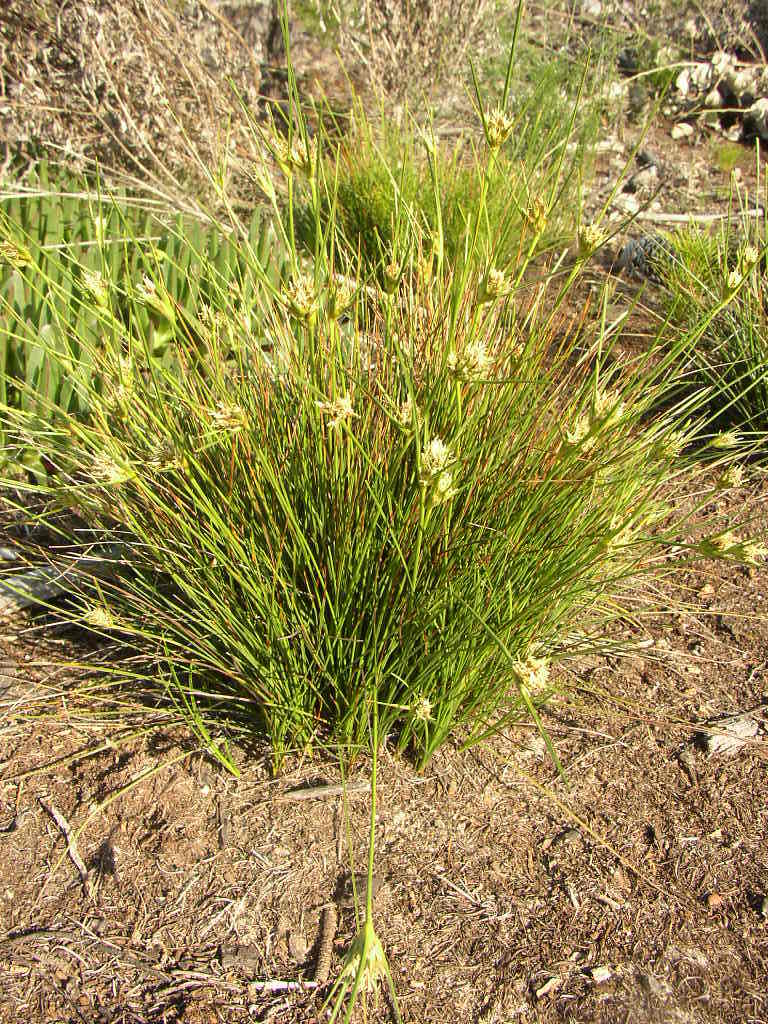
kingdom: Plantae
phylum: Tracheophyta
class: Liliopsida
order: Poales
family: Cyperaceae
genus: Ficinia
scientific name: Ficinia anceps
